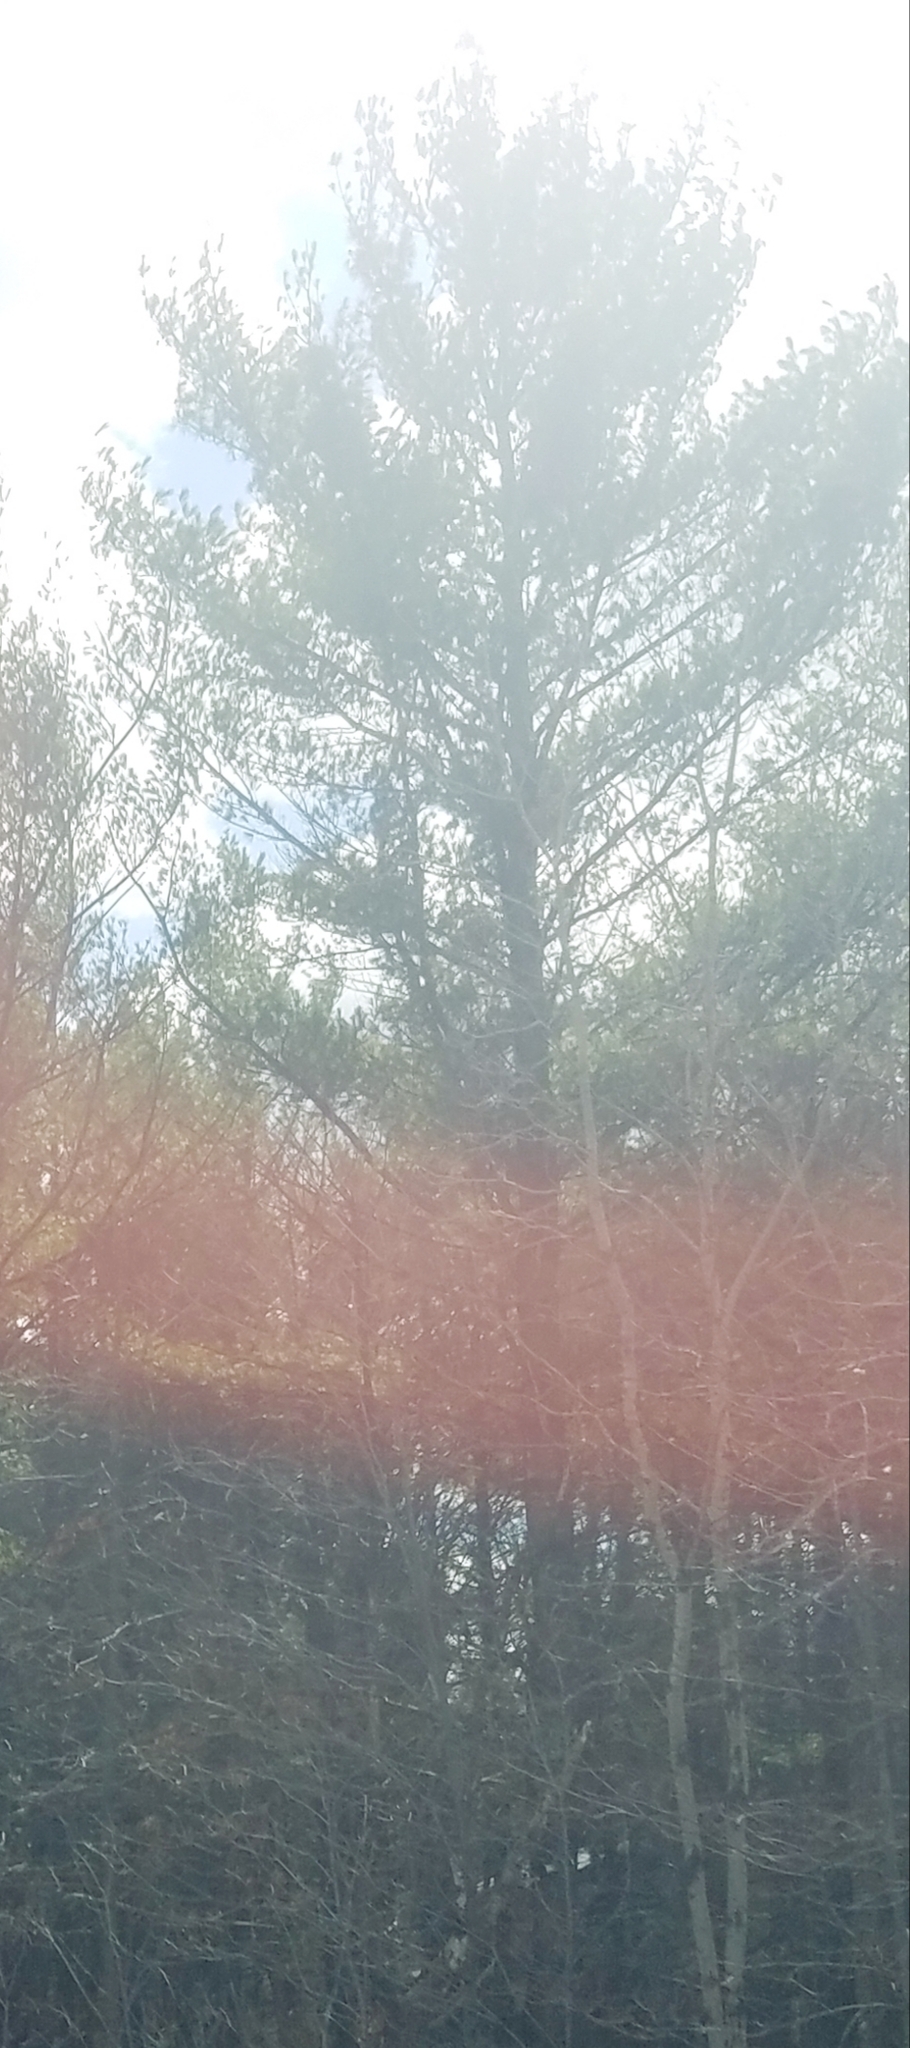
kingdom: Plantae
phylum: Tracheophyta
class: Pinopsida
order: Pinales
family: Pinaceae
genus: Pinus
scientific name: Pinus strobus
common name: Weymouth pine
